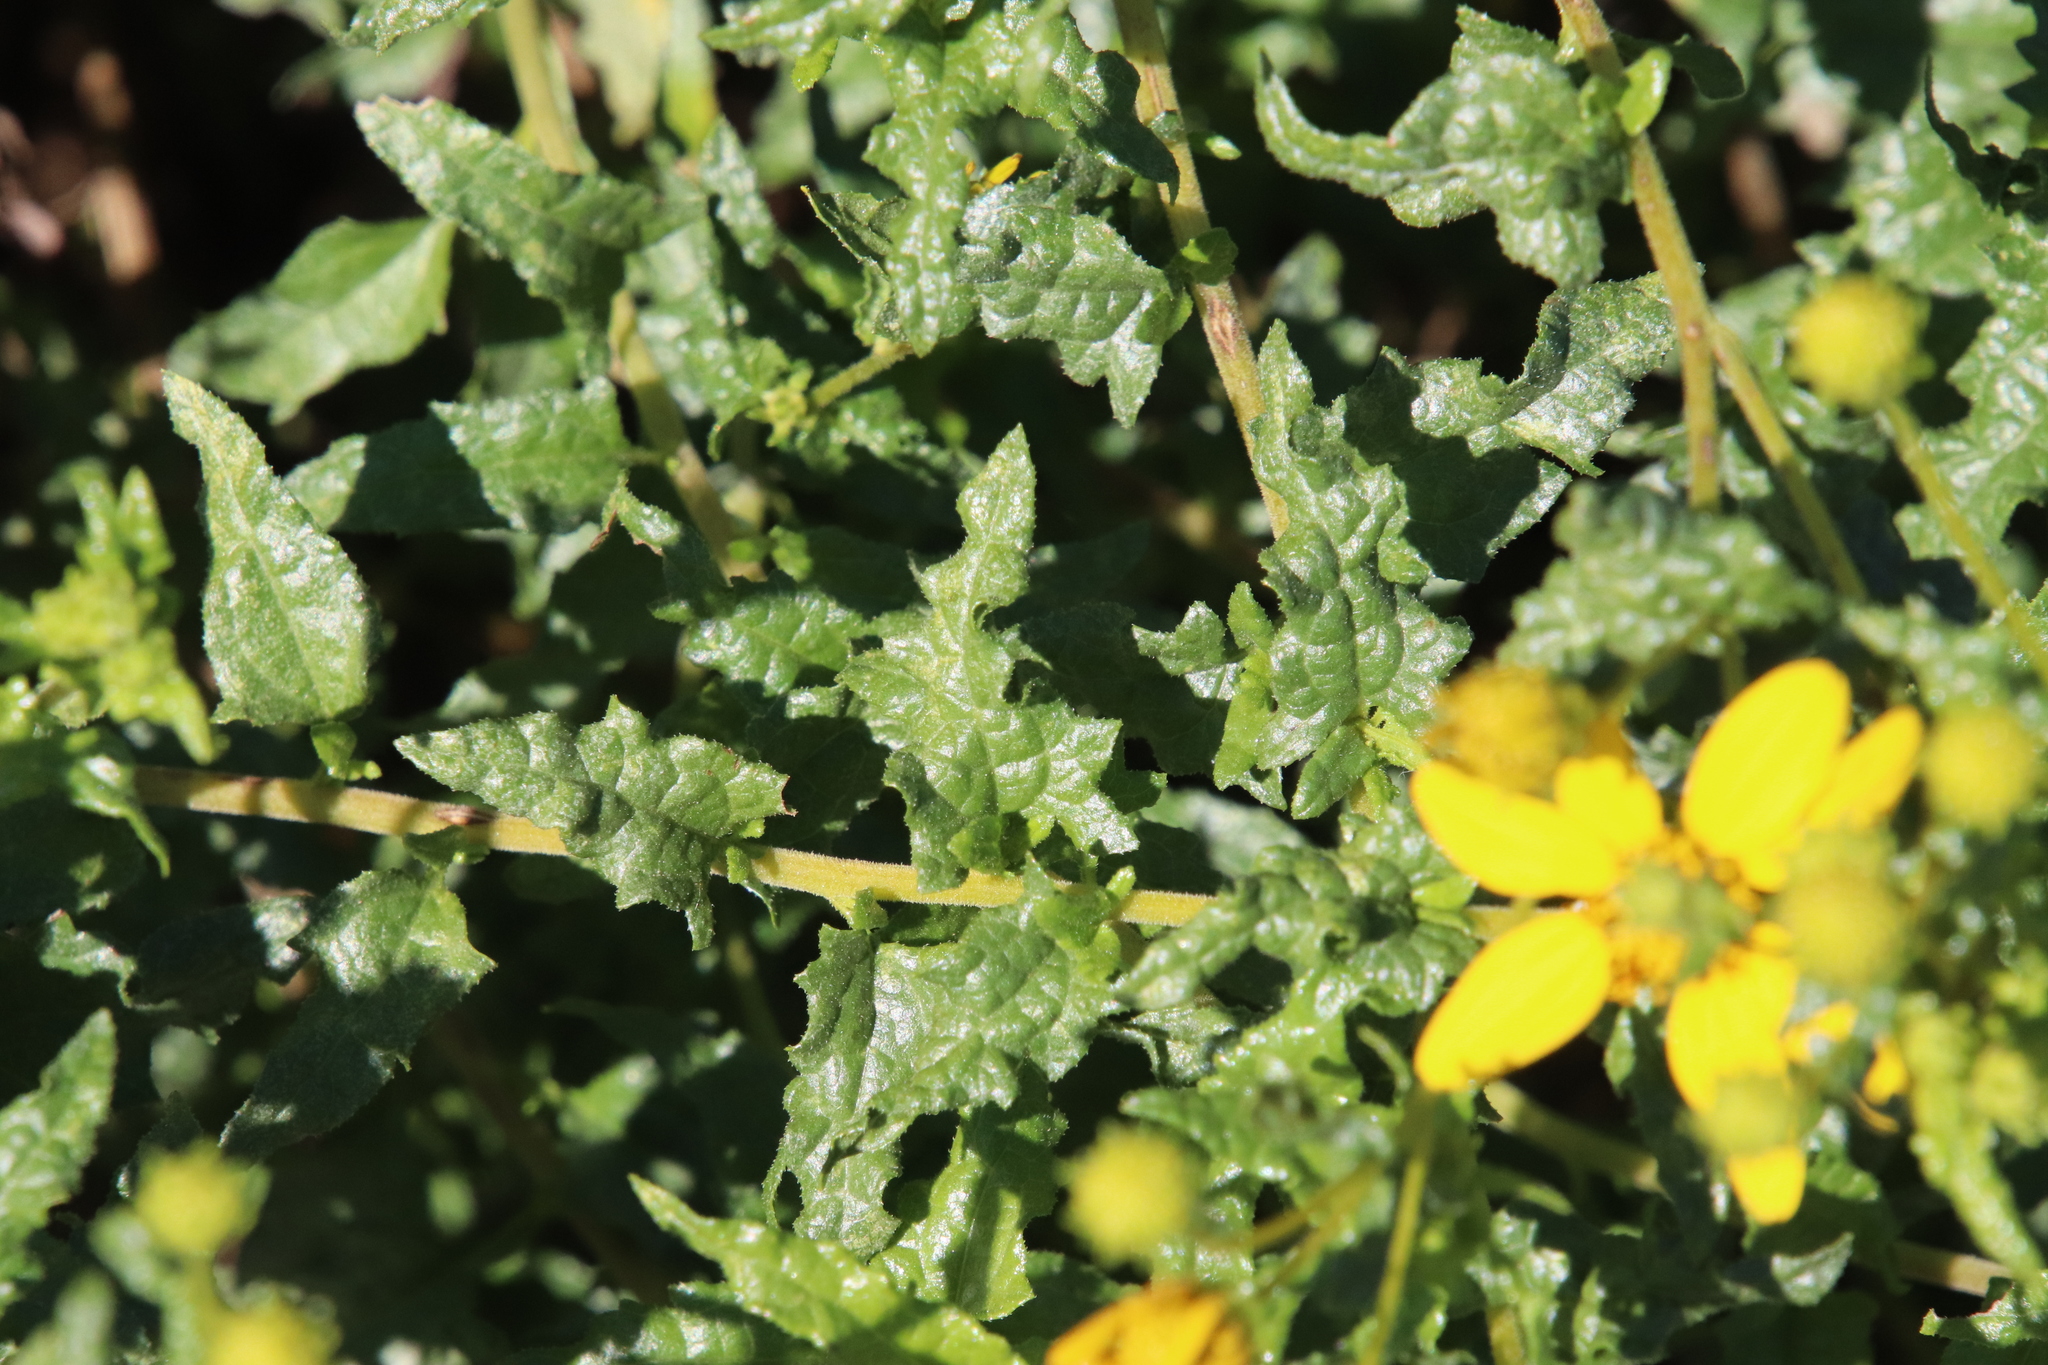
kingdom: Plantae
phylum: Tracheophyta
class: Magnoliopsida
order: Asterales
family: Asteraceae
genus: Bahiopsis
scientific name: Bahiopsis laciniata
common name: San diego county viguiera
